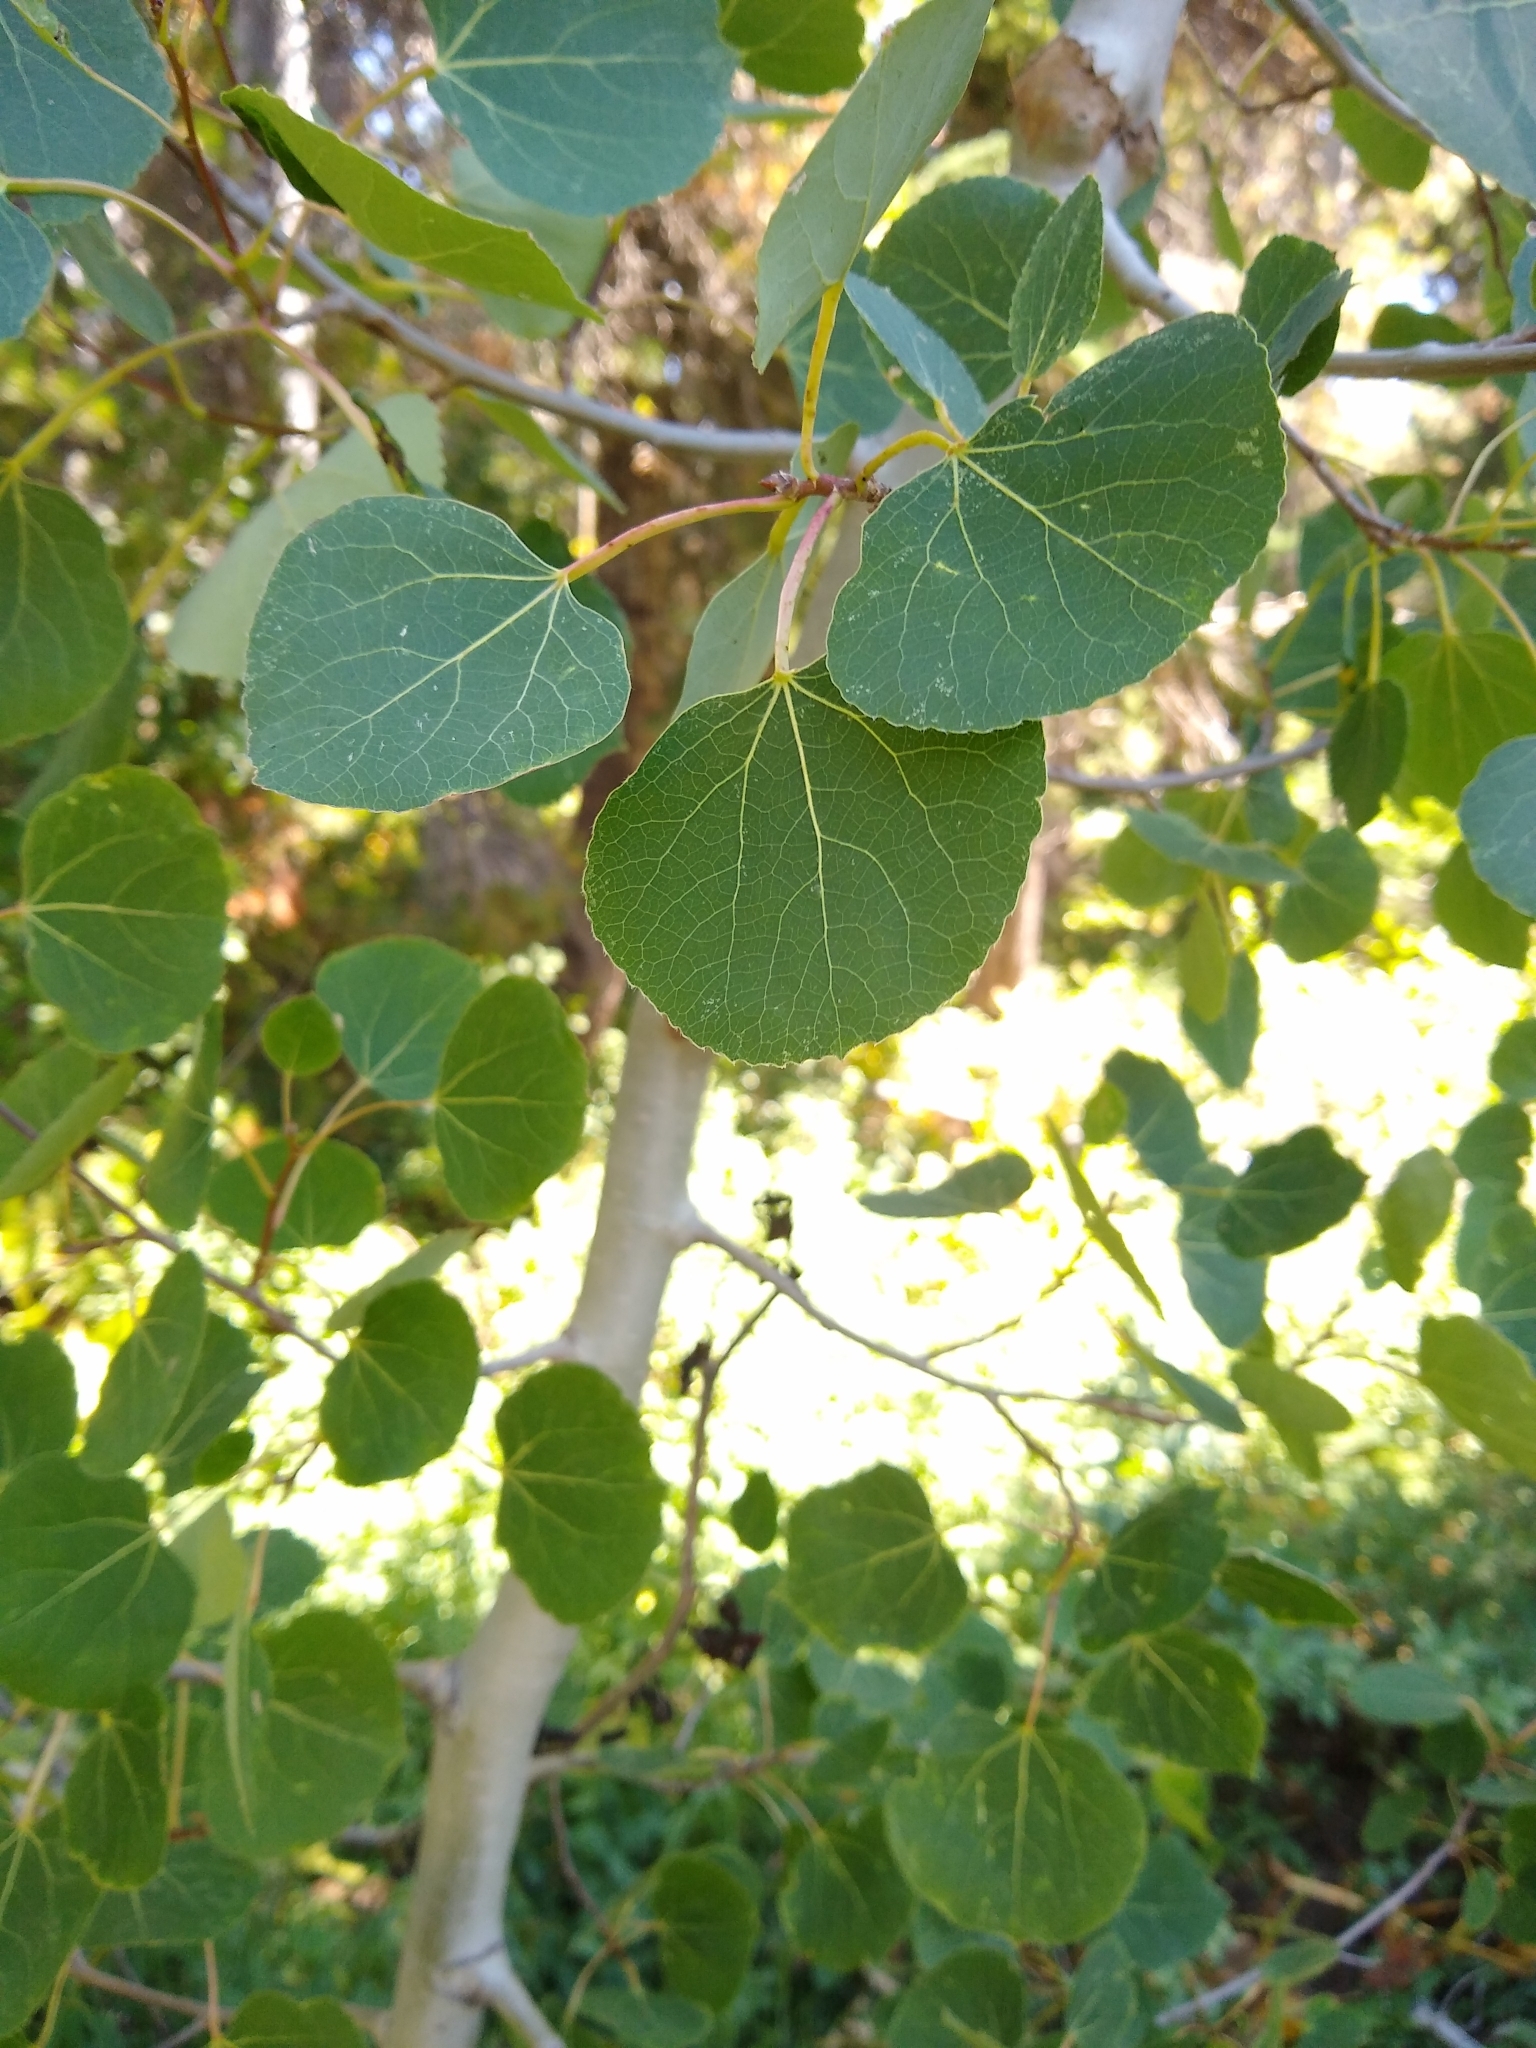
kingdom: Plantae
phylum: Tracheophyta
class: Magnoliopsida
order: Malpighiales
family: Salicaceae
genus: Populus
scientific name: Populus tremuloides
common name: Quaking aspen
